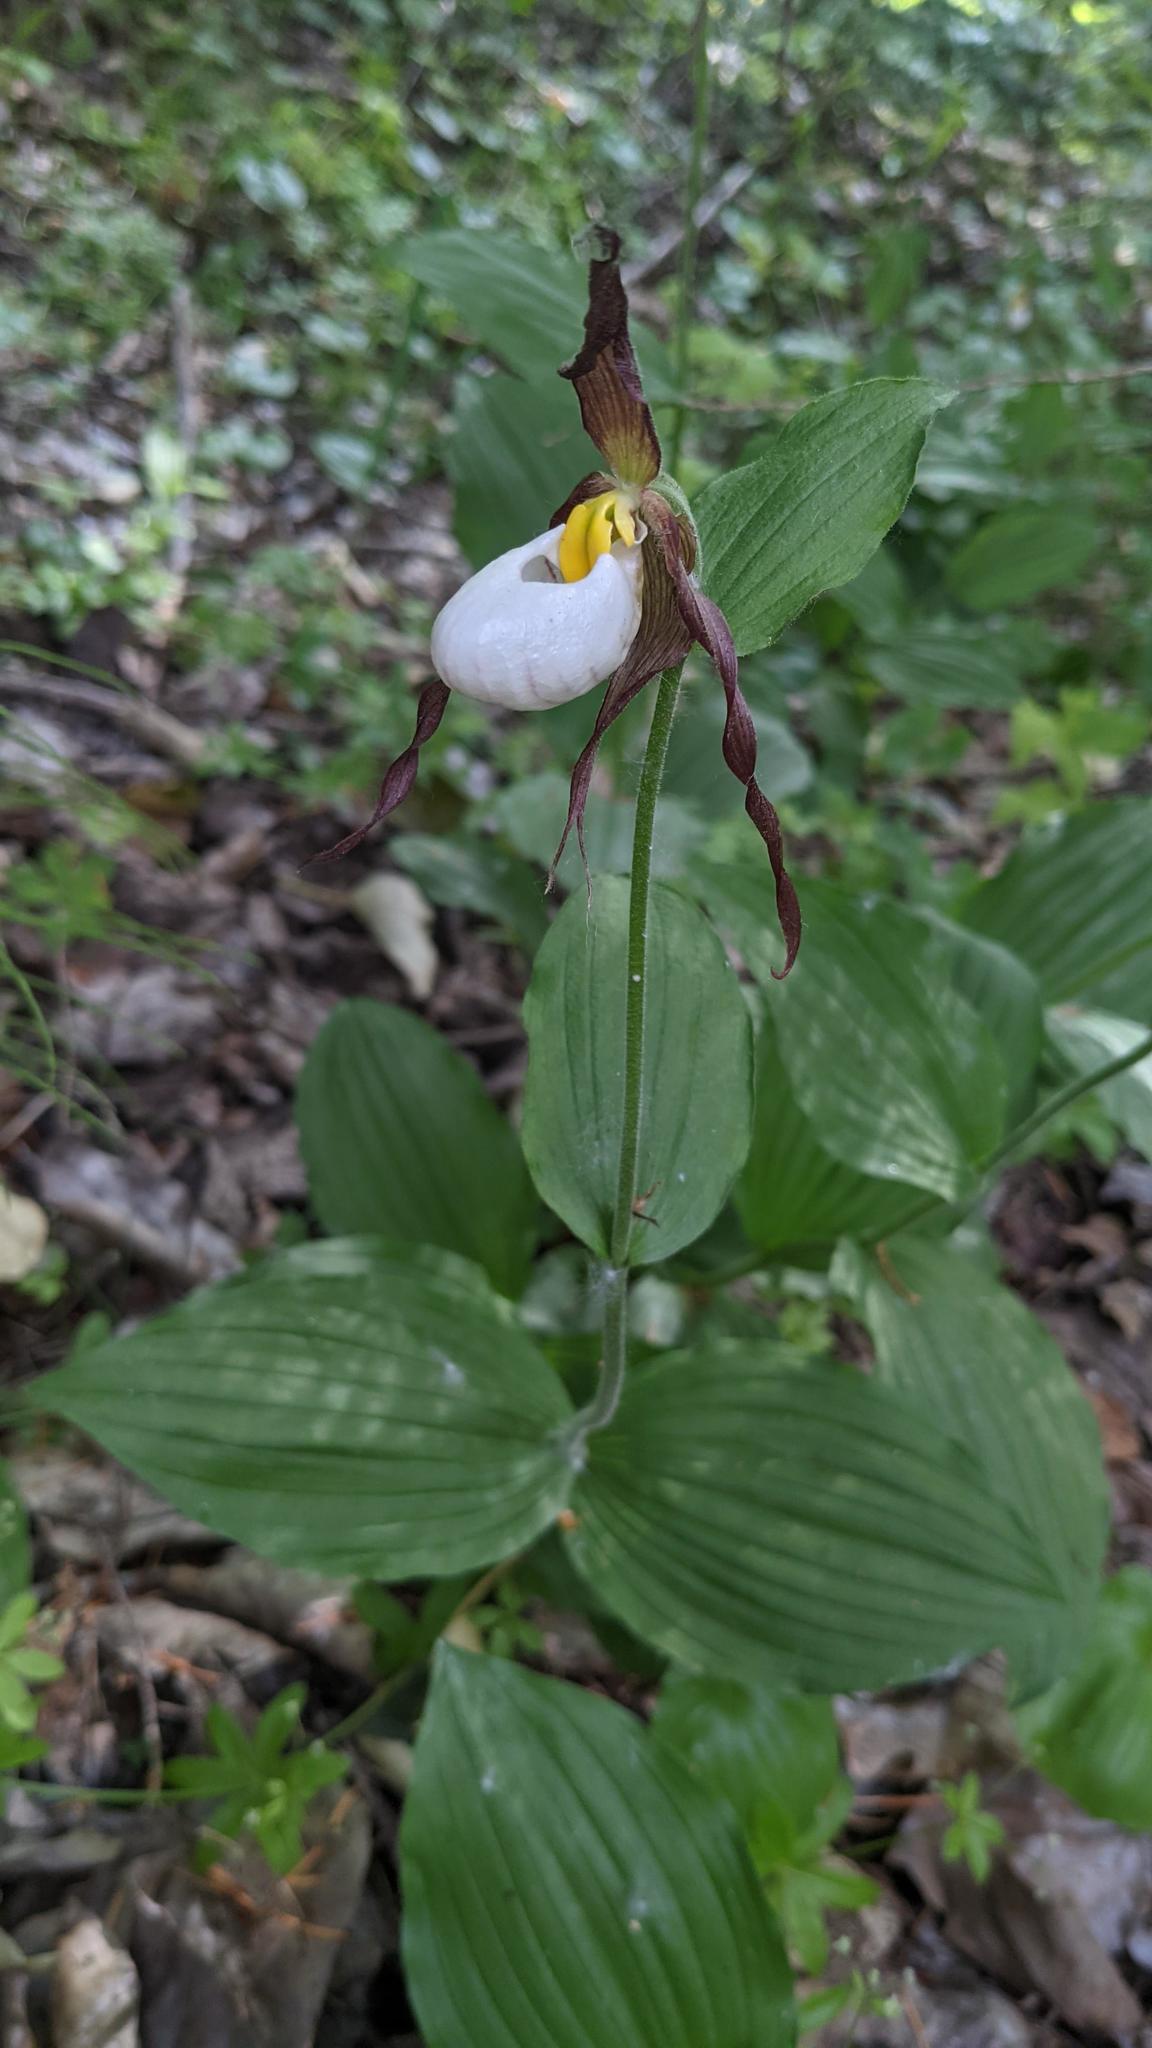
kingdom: Plantae
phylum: Tracheophyta
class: Liliopsida
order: Asparagales
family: Orchidaceae
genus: Cypripedium
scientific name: Cypripedium montanum
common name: Mountain lady's-slipper
